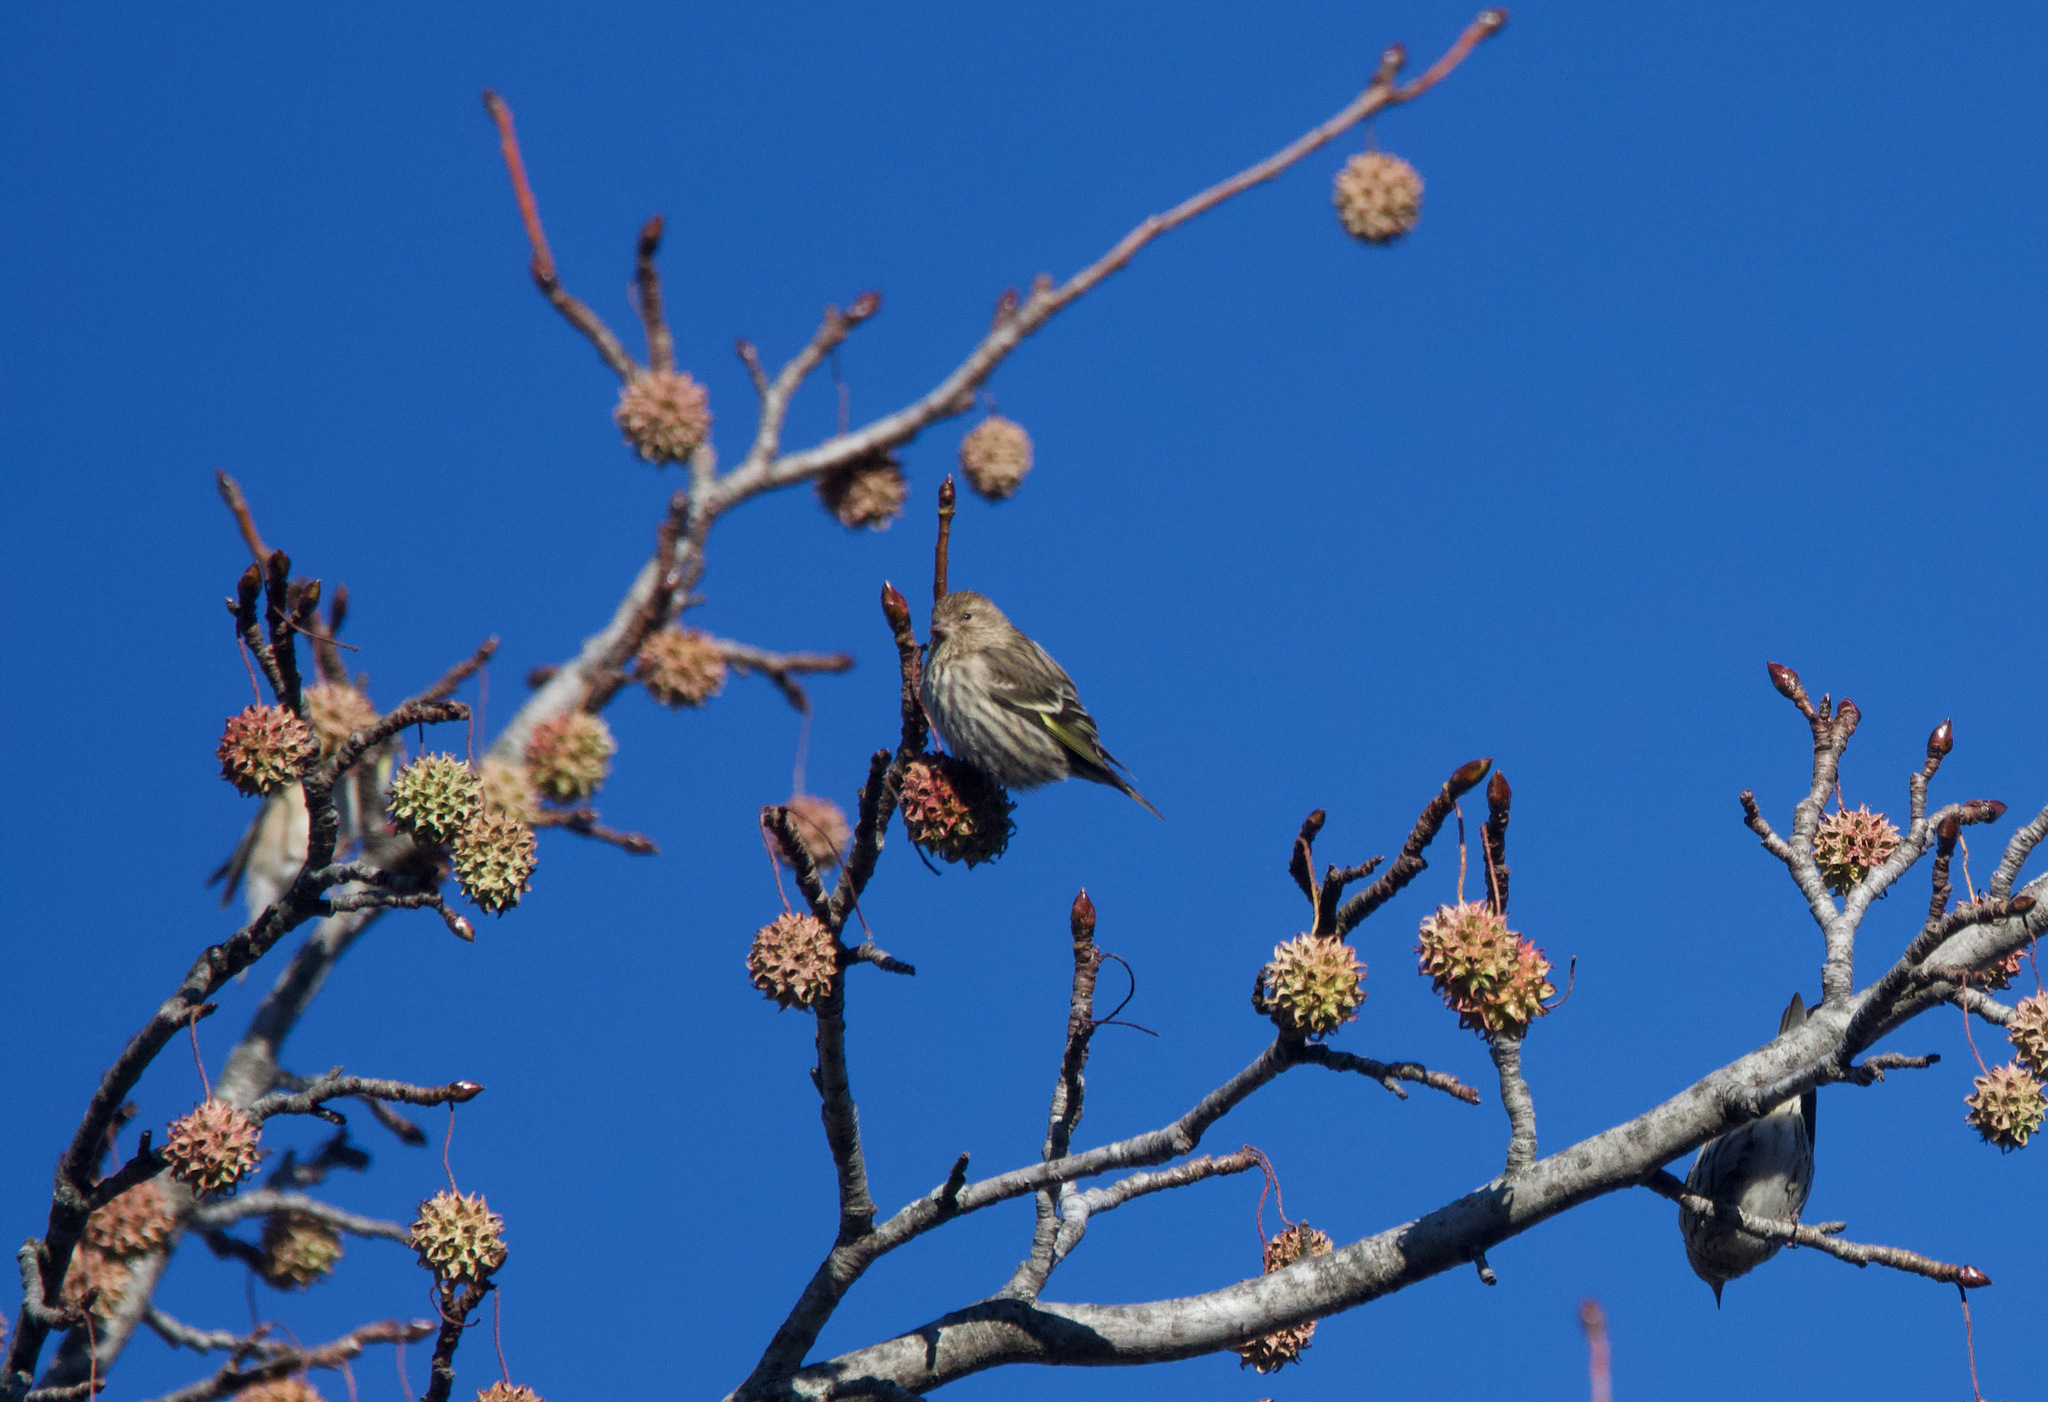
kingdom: Animalia
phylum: Chordata
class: Aves
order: Passeriformes
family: Fringillidae
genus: Spinus
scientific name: Spinus pinus
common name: Pine siskin
